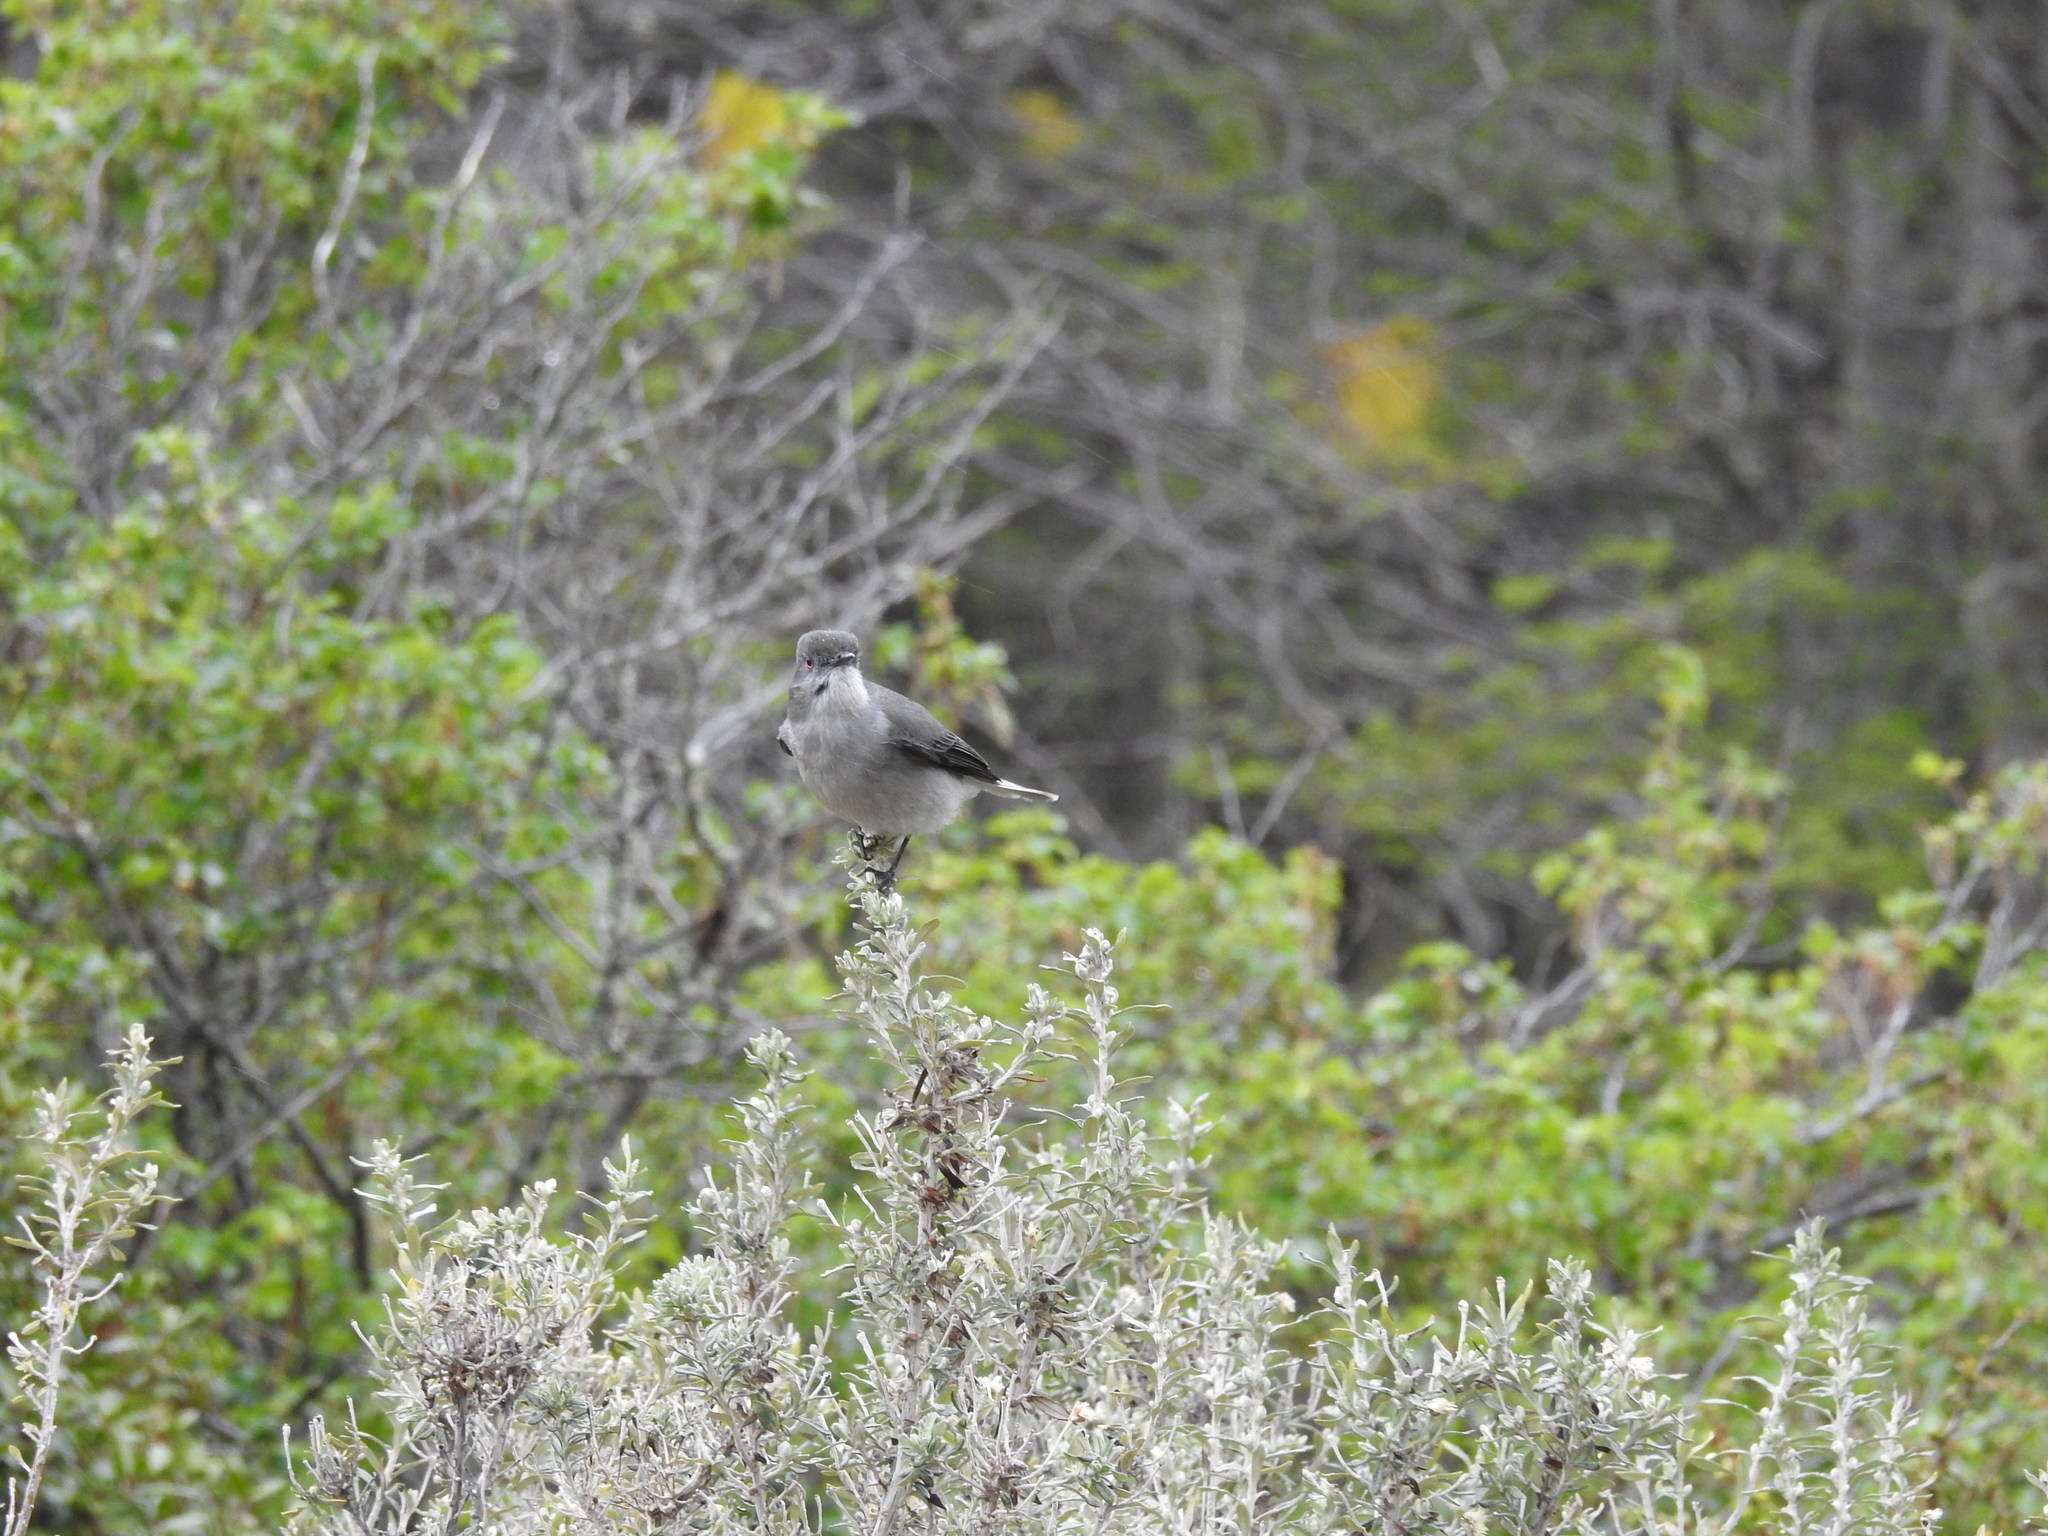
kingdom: Animalia
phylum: Chordata
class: Aves
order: Passeriformes
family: Tyrannidae
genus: Xolmis
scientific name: Xolmis pyrope
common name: Fire-eyed diucon
